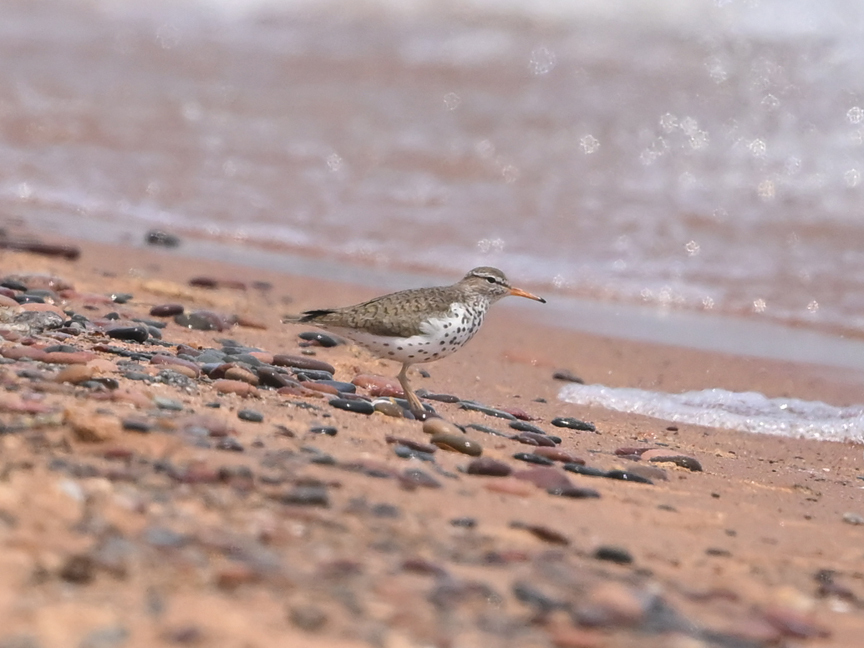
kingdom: Animalia
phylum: Chordata
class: Aves
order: Charadriiformes
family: Scolopacidae
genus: Actitis
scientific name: Actitis macularius
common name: Spotted sandpiper
